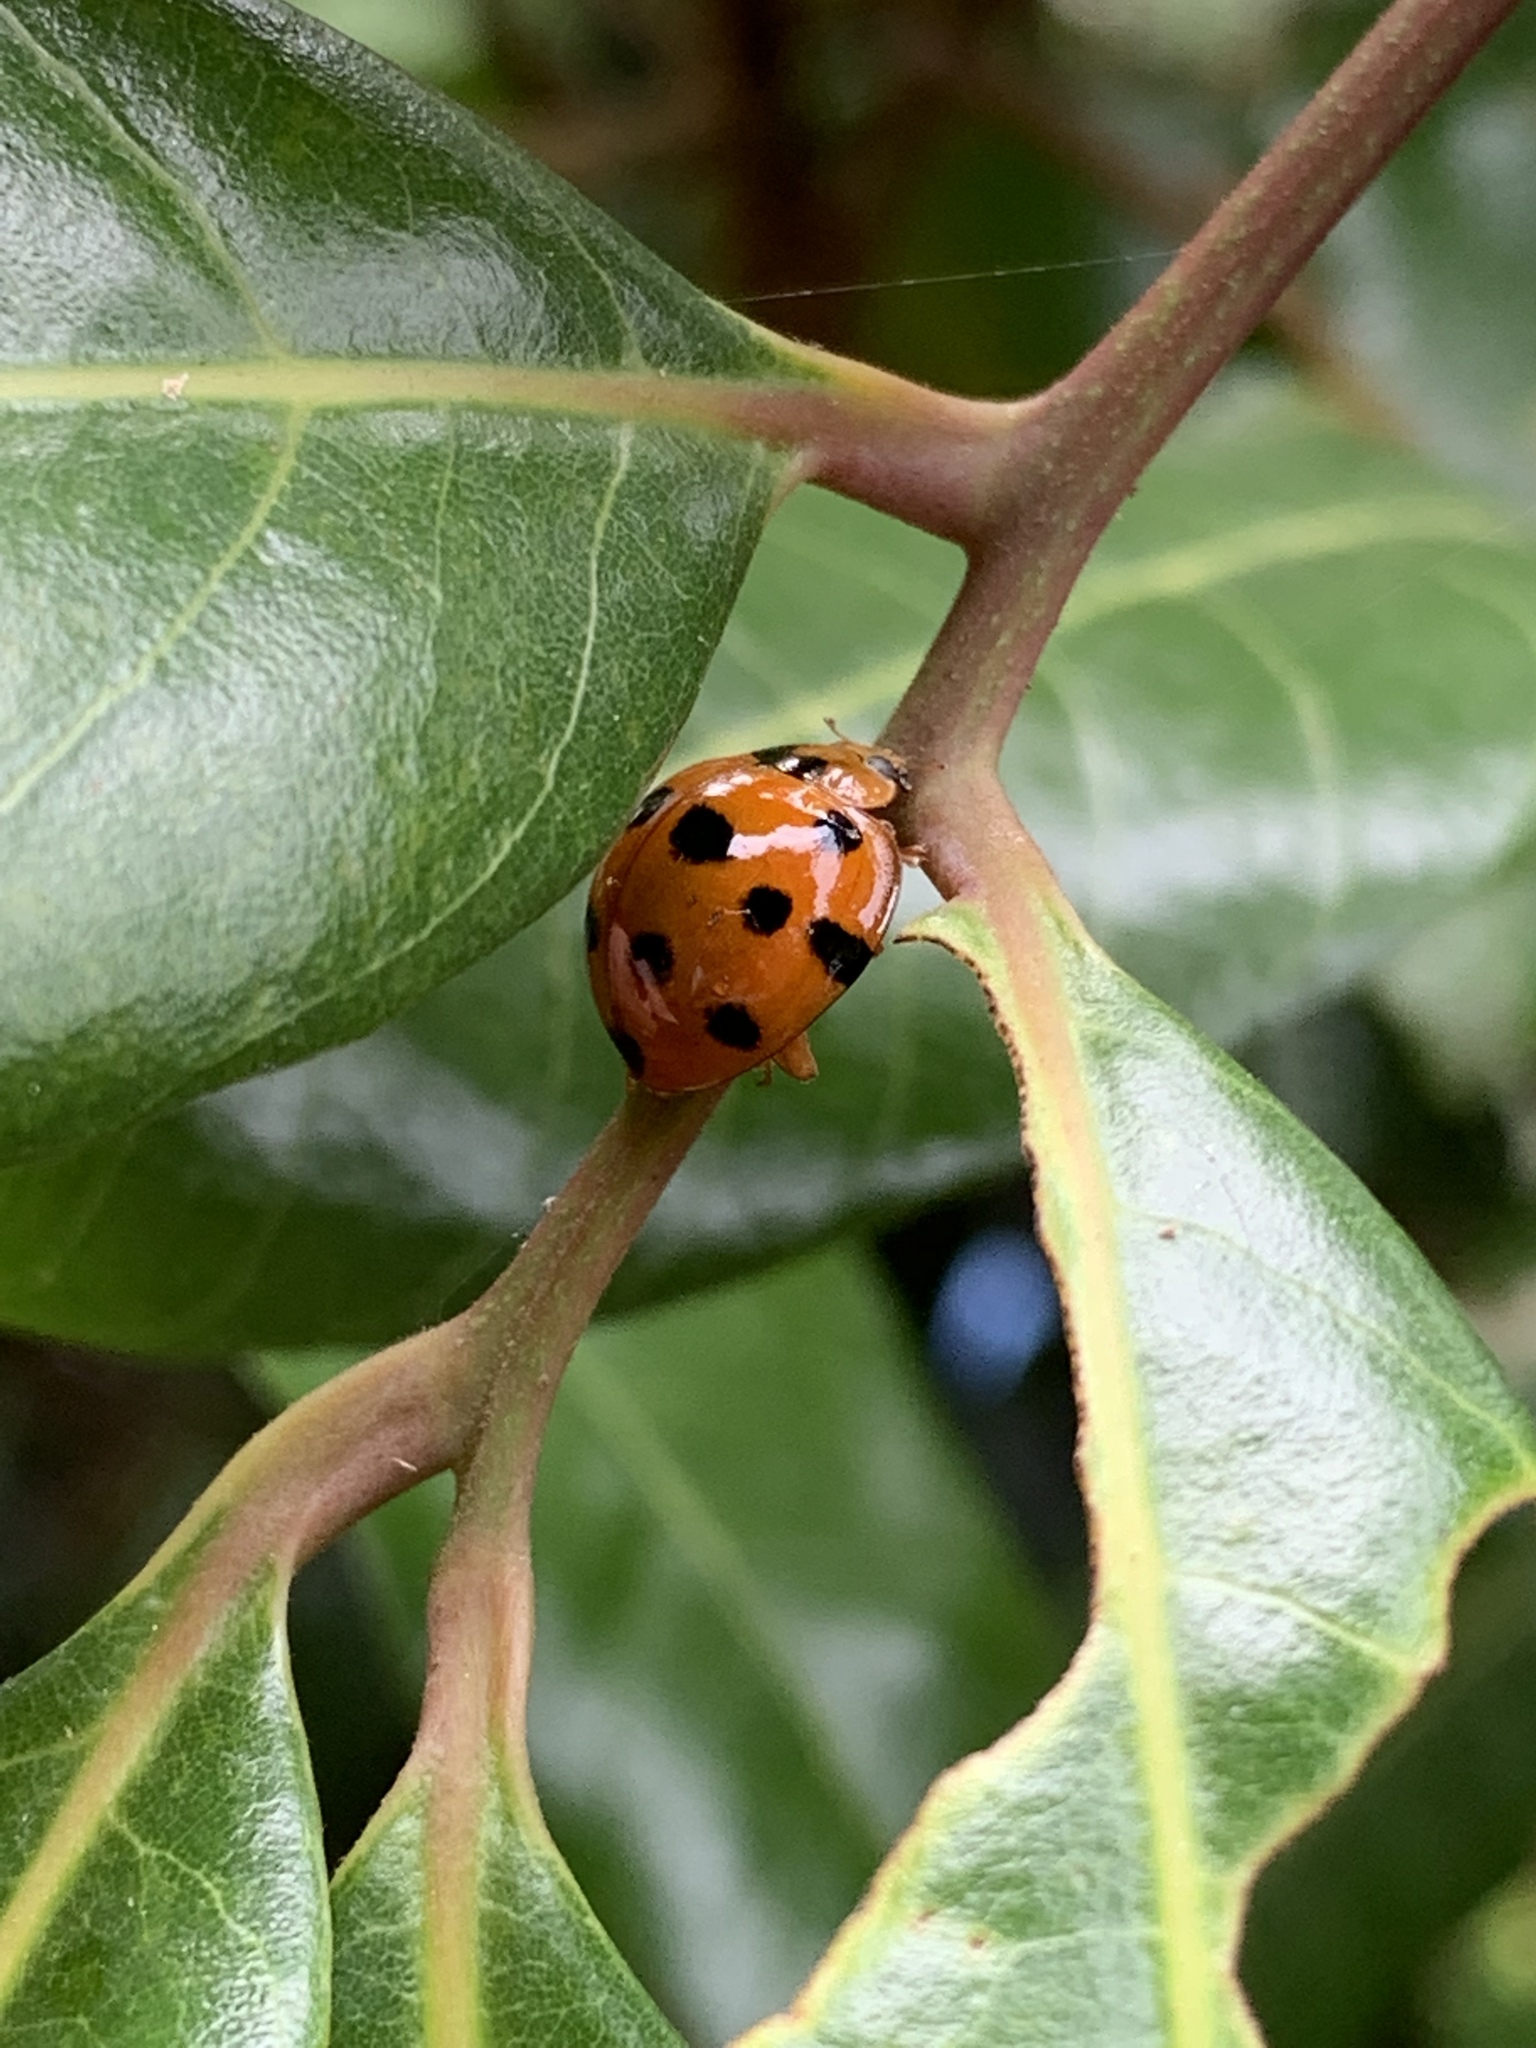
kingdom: Animalia
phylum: Arthropoda
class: Insecta
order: Coleoptera
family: Coccinellidae
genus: Harmonia
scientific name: Harmonia dimidiata
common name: Ladybird beetle
